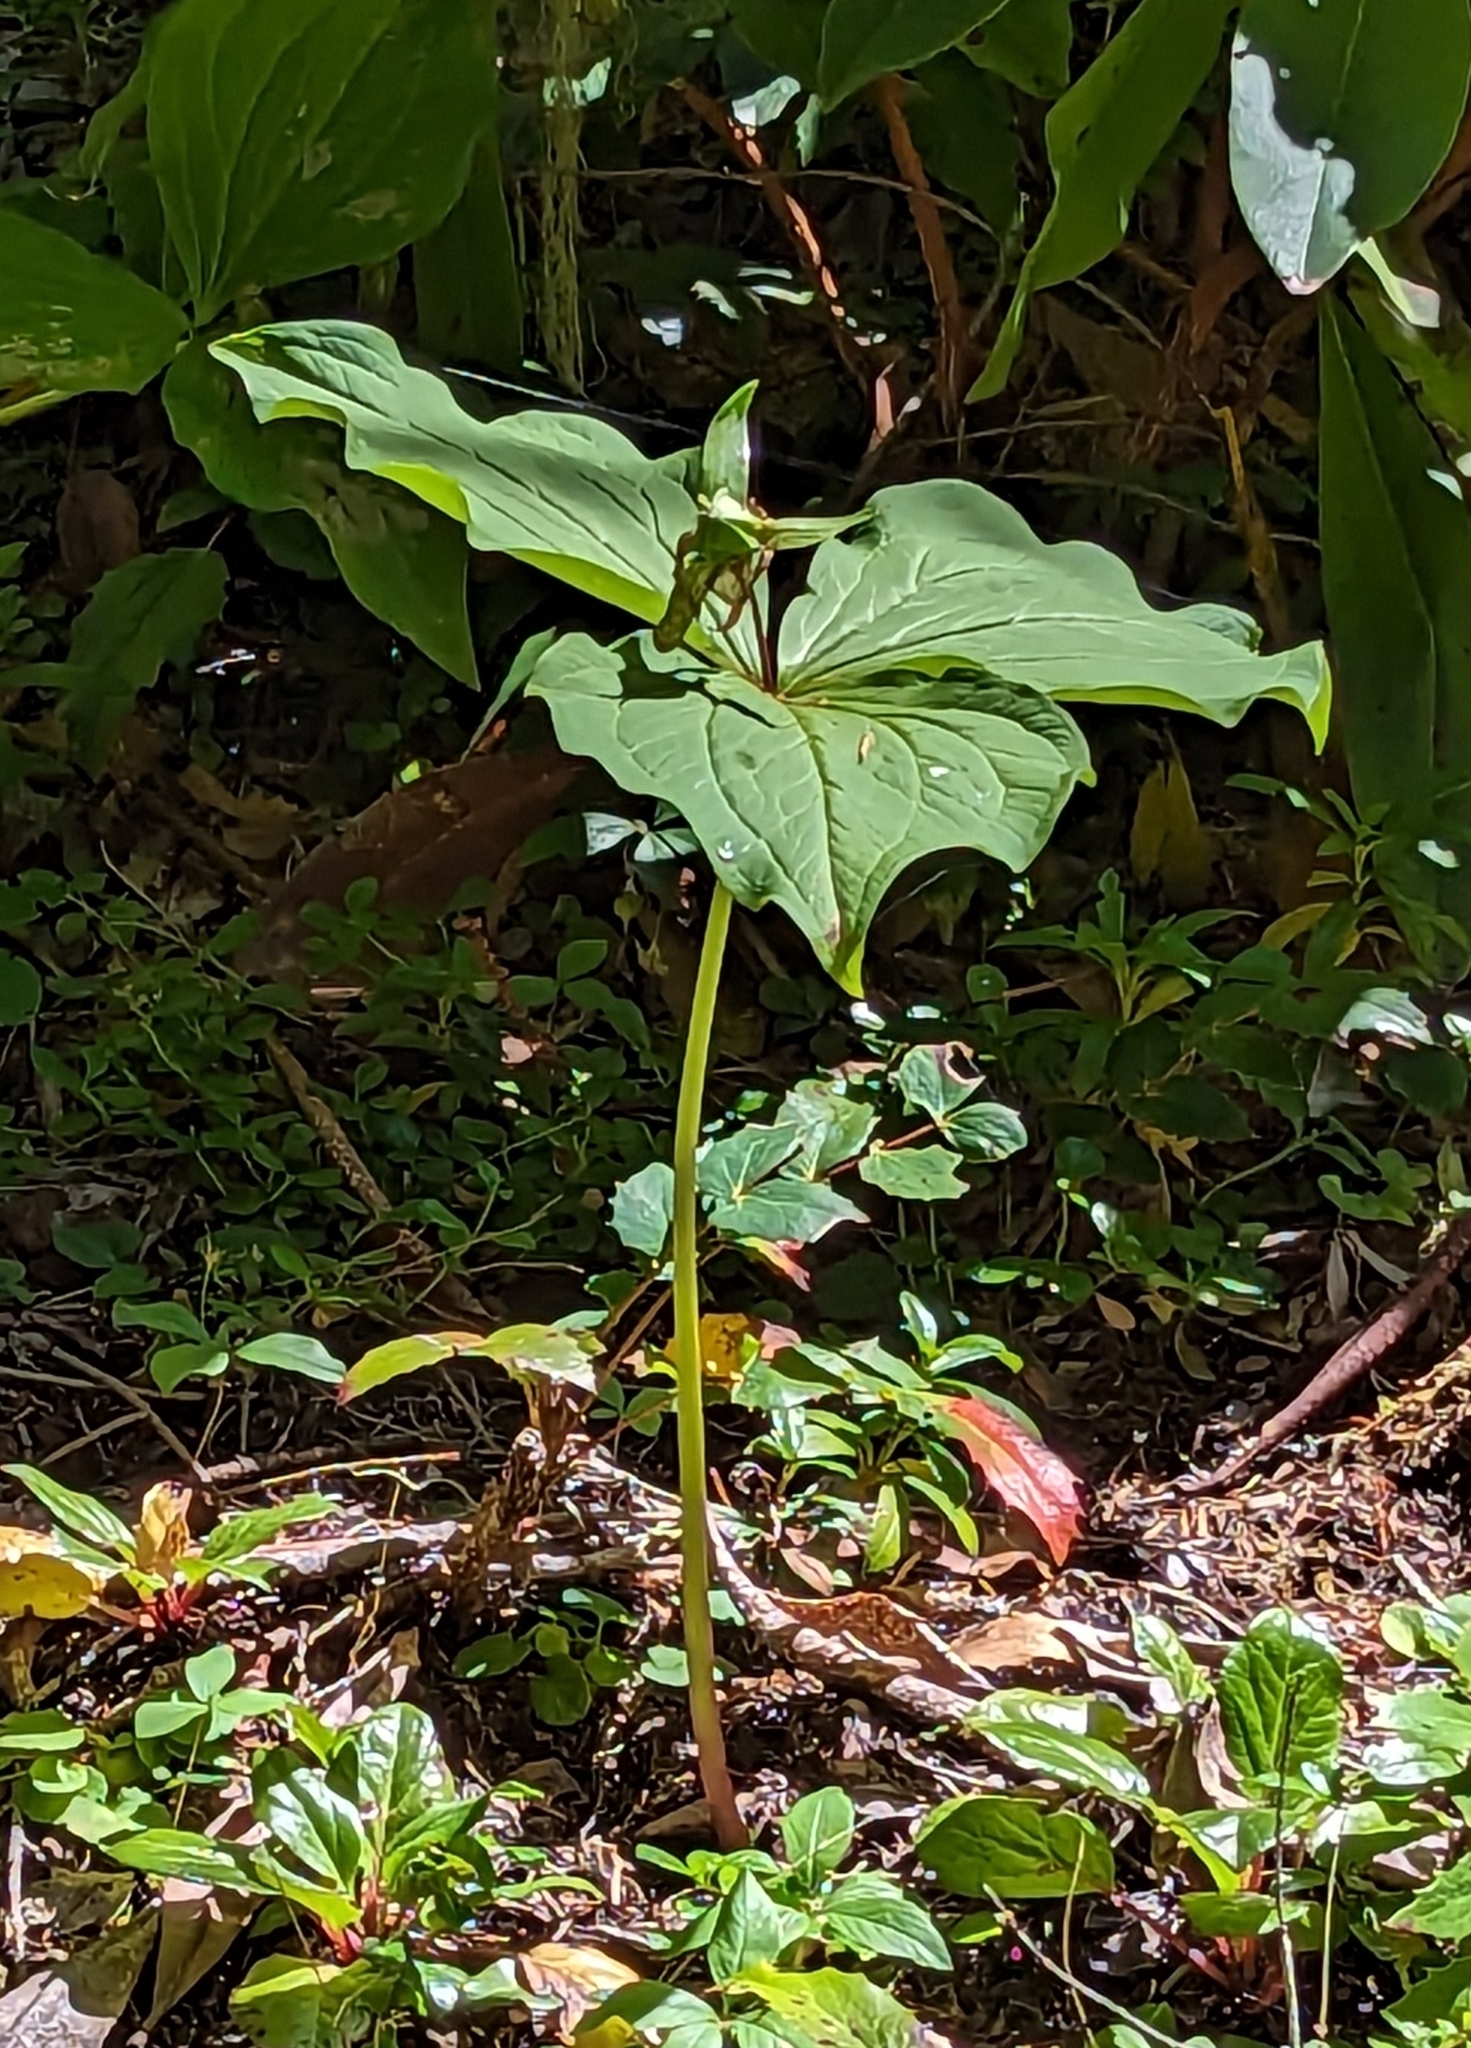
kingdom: Plantae
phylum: Tracheophyta
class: Liliopsida
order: Liliales
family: Melanthiaceae
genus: Trillium
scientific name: Trillium ovatum
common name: Pacific trillium
